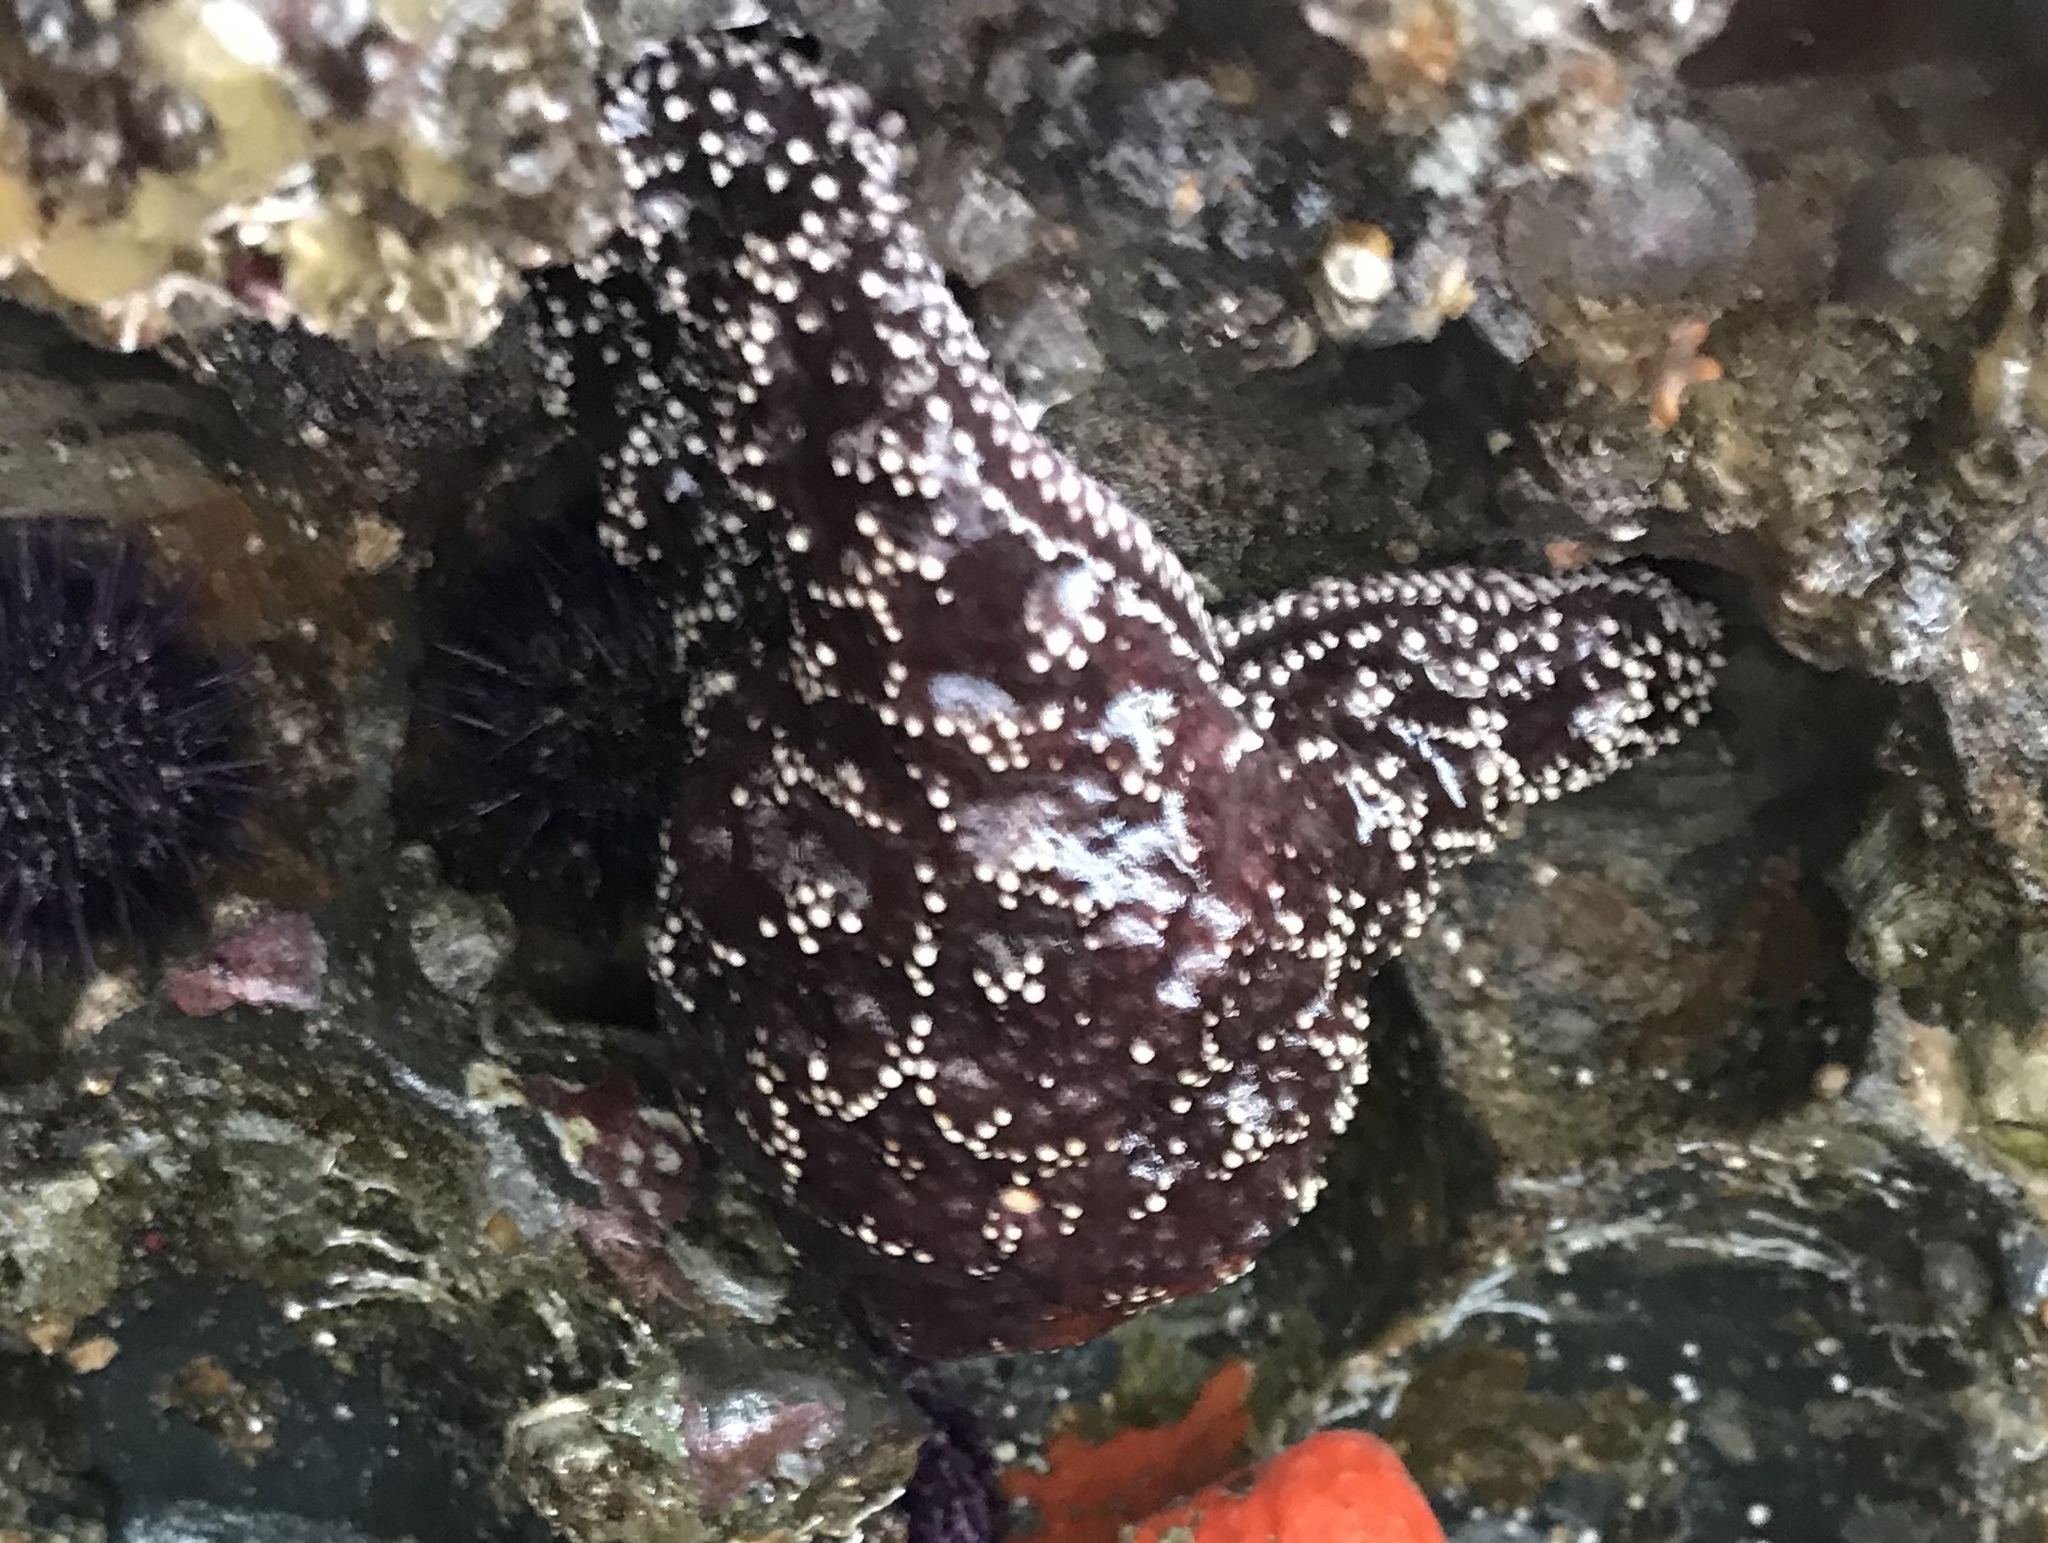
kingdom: Animalia
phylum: Echinodermata
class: Asteroidea
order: Forcipulatida
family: Asteriidae
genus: Pisaster
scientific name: Pisaster ochraceus
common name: Ochre stars
